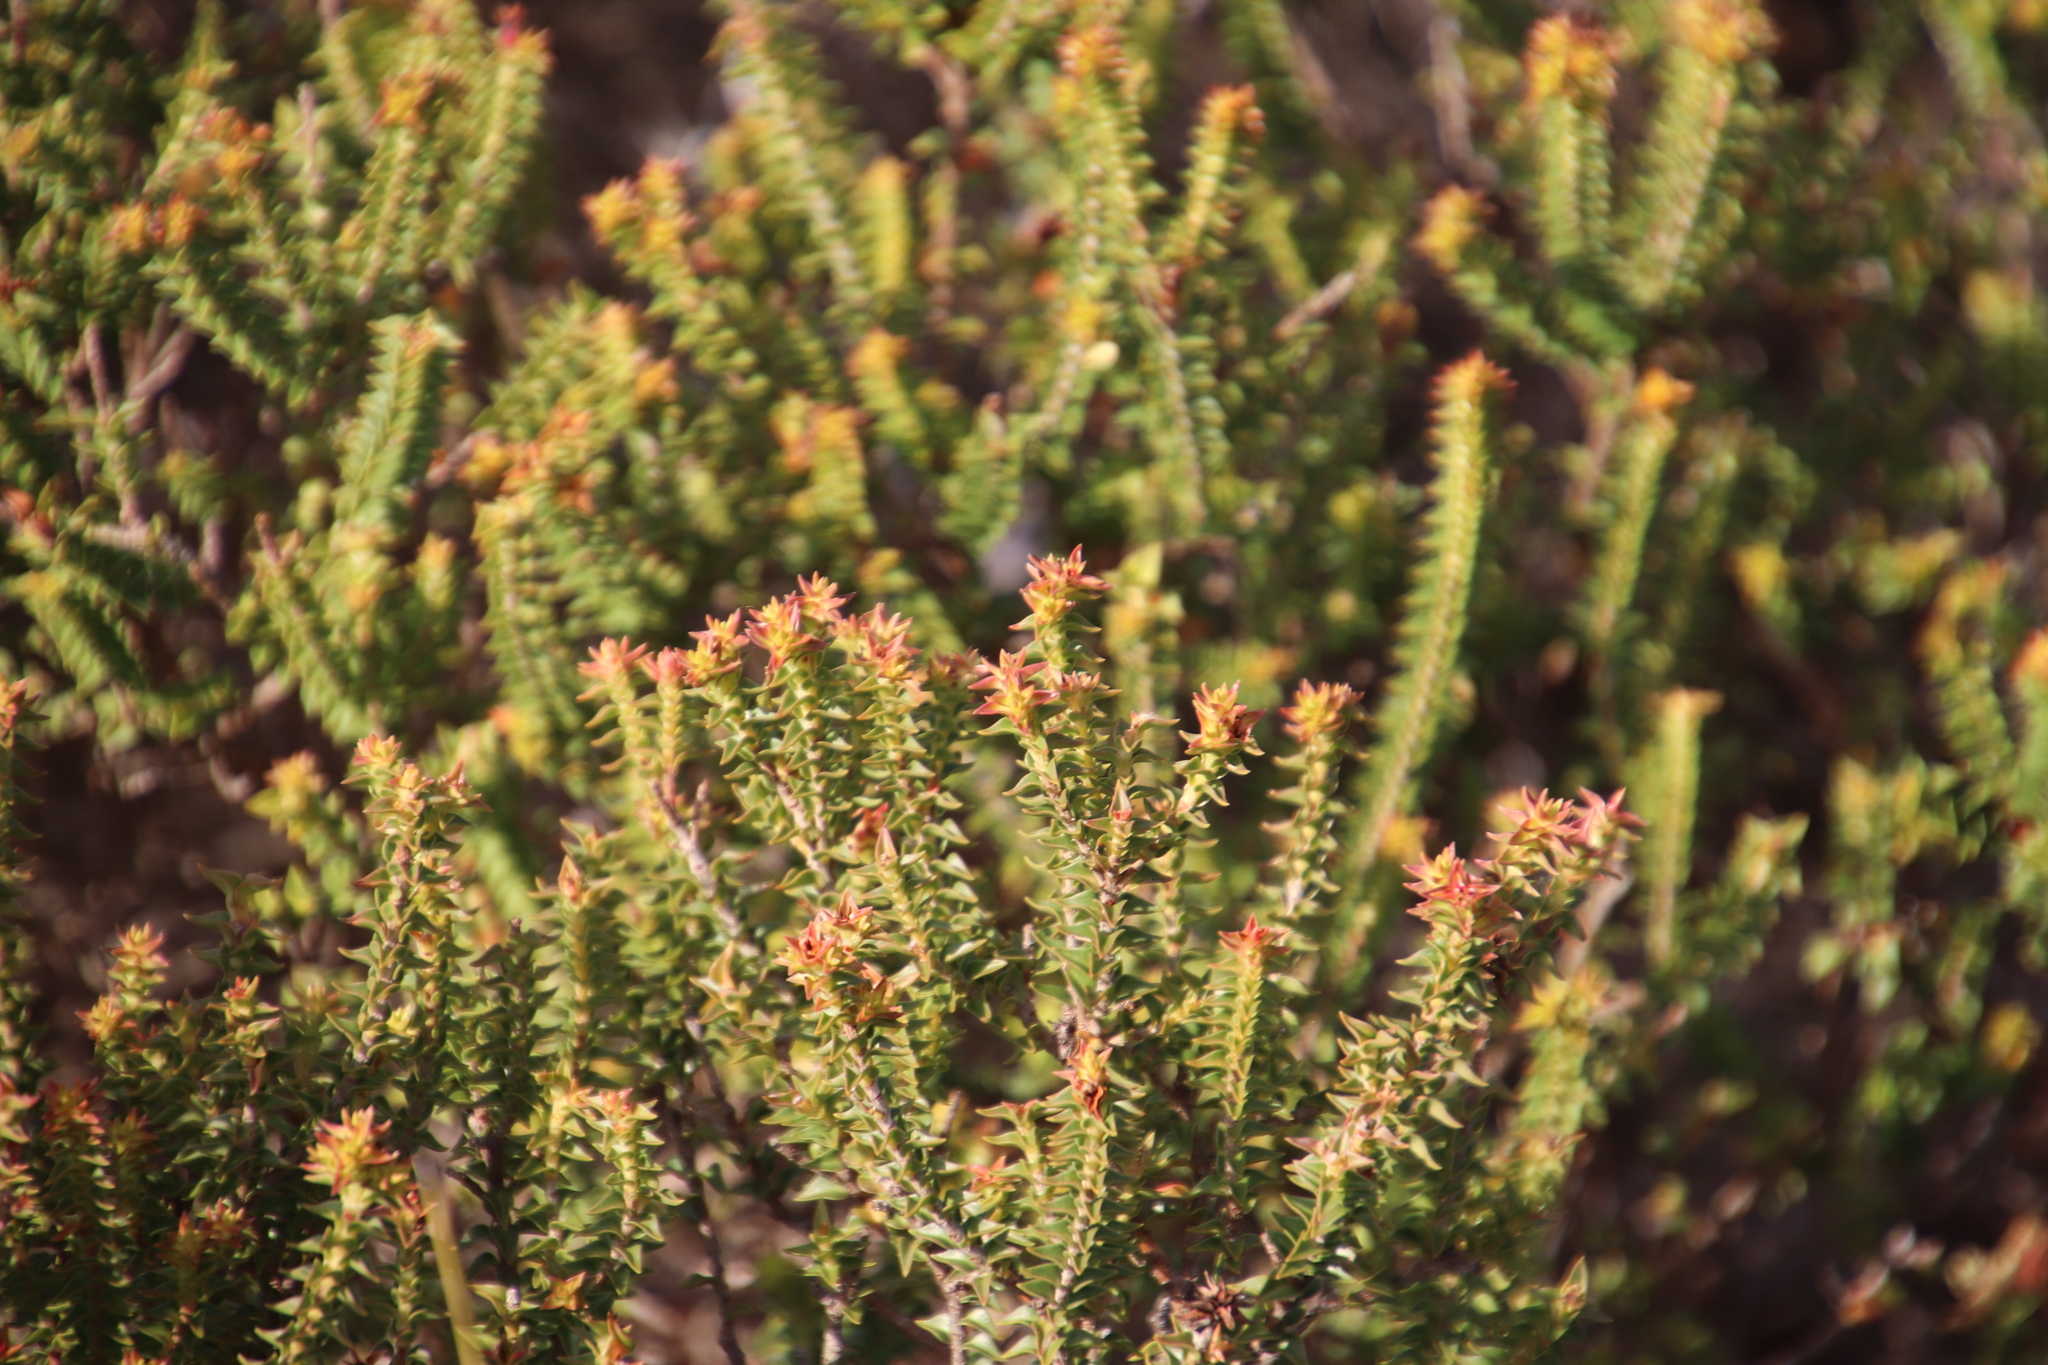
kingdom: Plantae
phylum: Tracheophyta
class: Magnoliopsida
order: Myrtales
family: Penaeaceae
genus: Penaea
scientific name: Penaea mucronata
